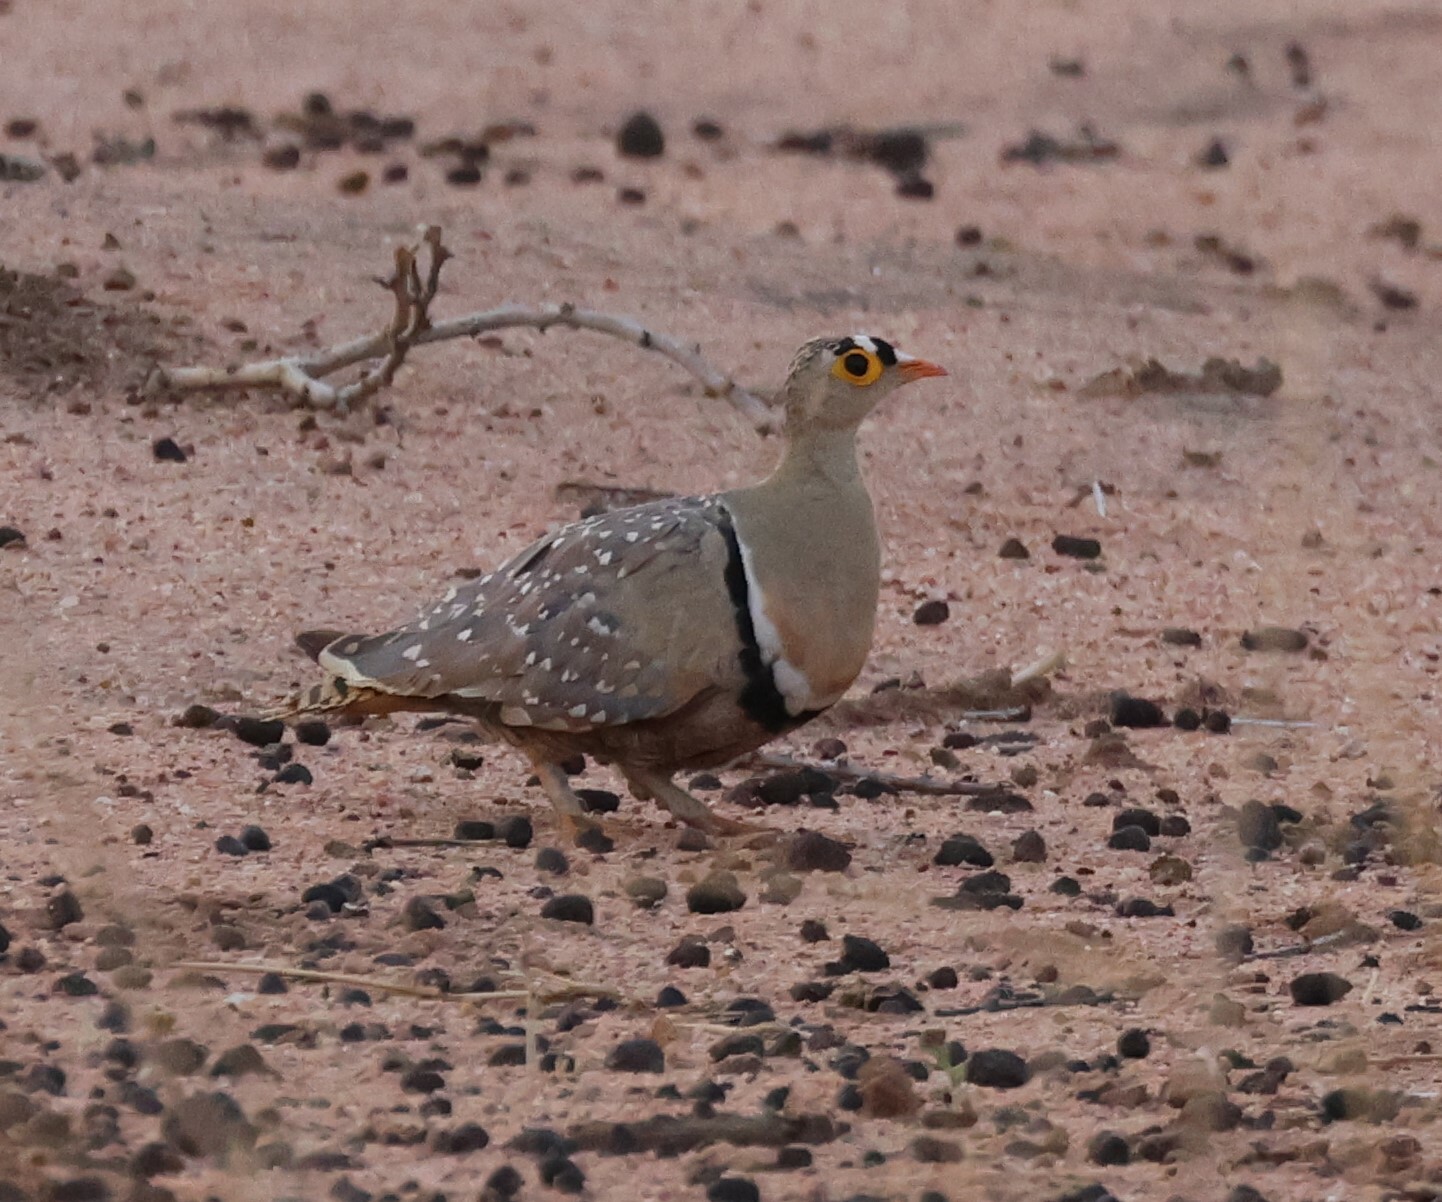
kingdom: Animalia
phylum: Chordata
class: Aves
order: Pteroclidiformes
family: Pteroclididae
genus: Pterocles
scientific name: Pterocles bicinctus
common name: Double-banded sandgrouse
